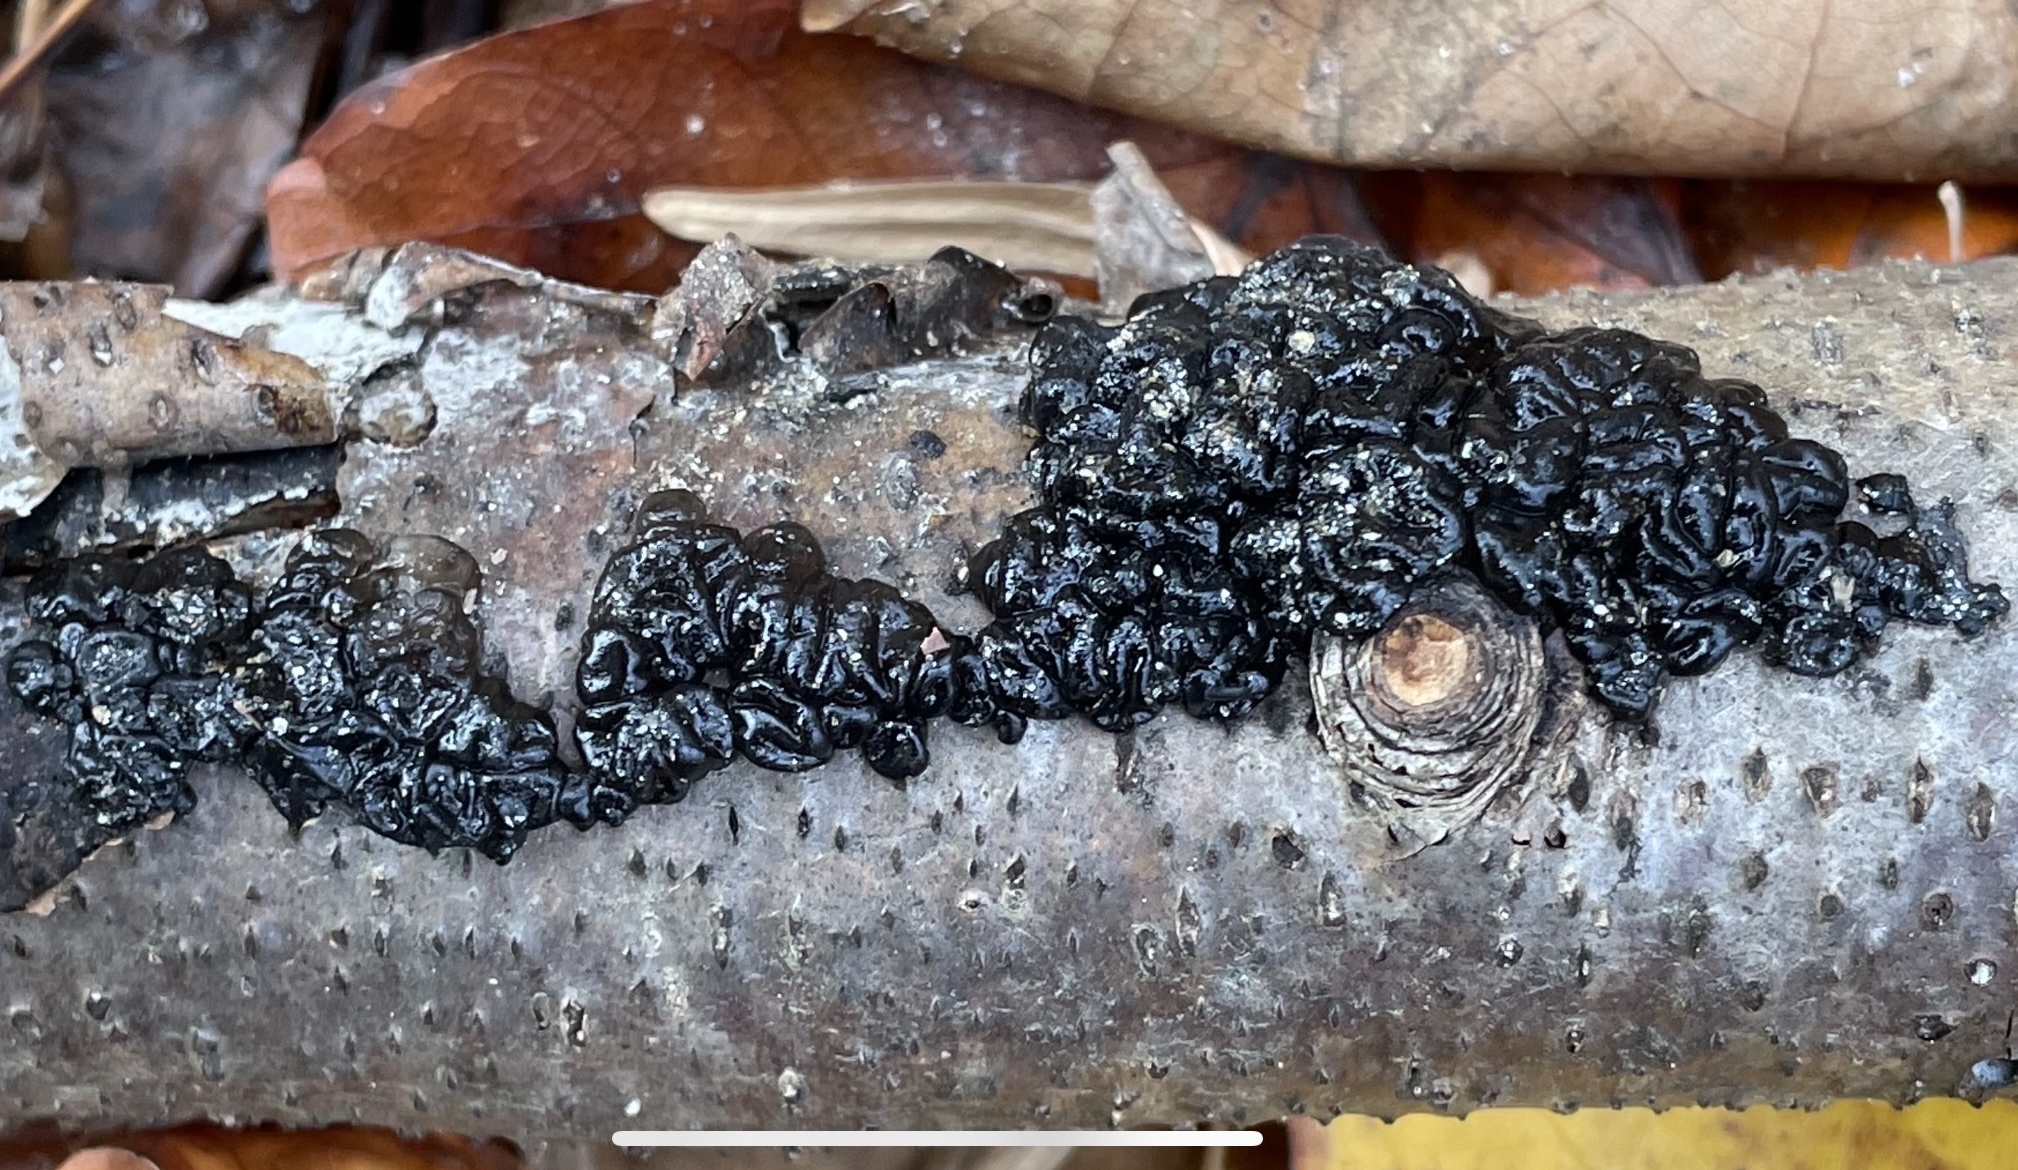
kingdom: Fungi
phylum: Basidiomycota
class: Agaricomycetes
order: Auriculariales
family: Auriculariaceae
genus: Exidia
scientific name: Exidia glandulosa
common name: Witches' butter
